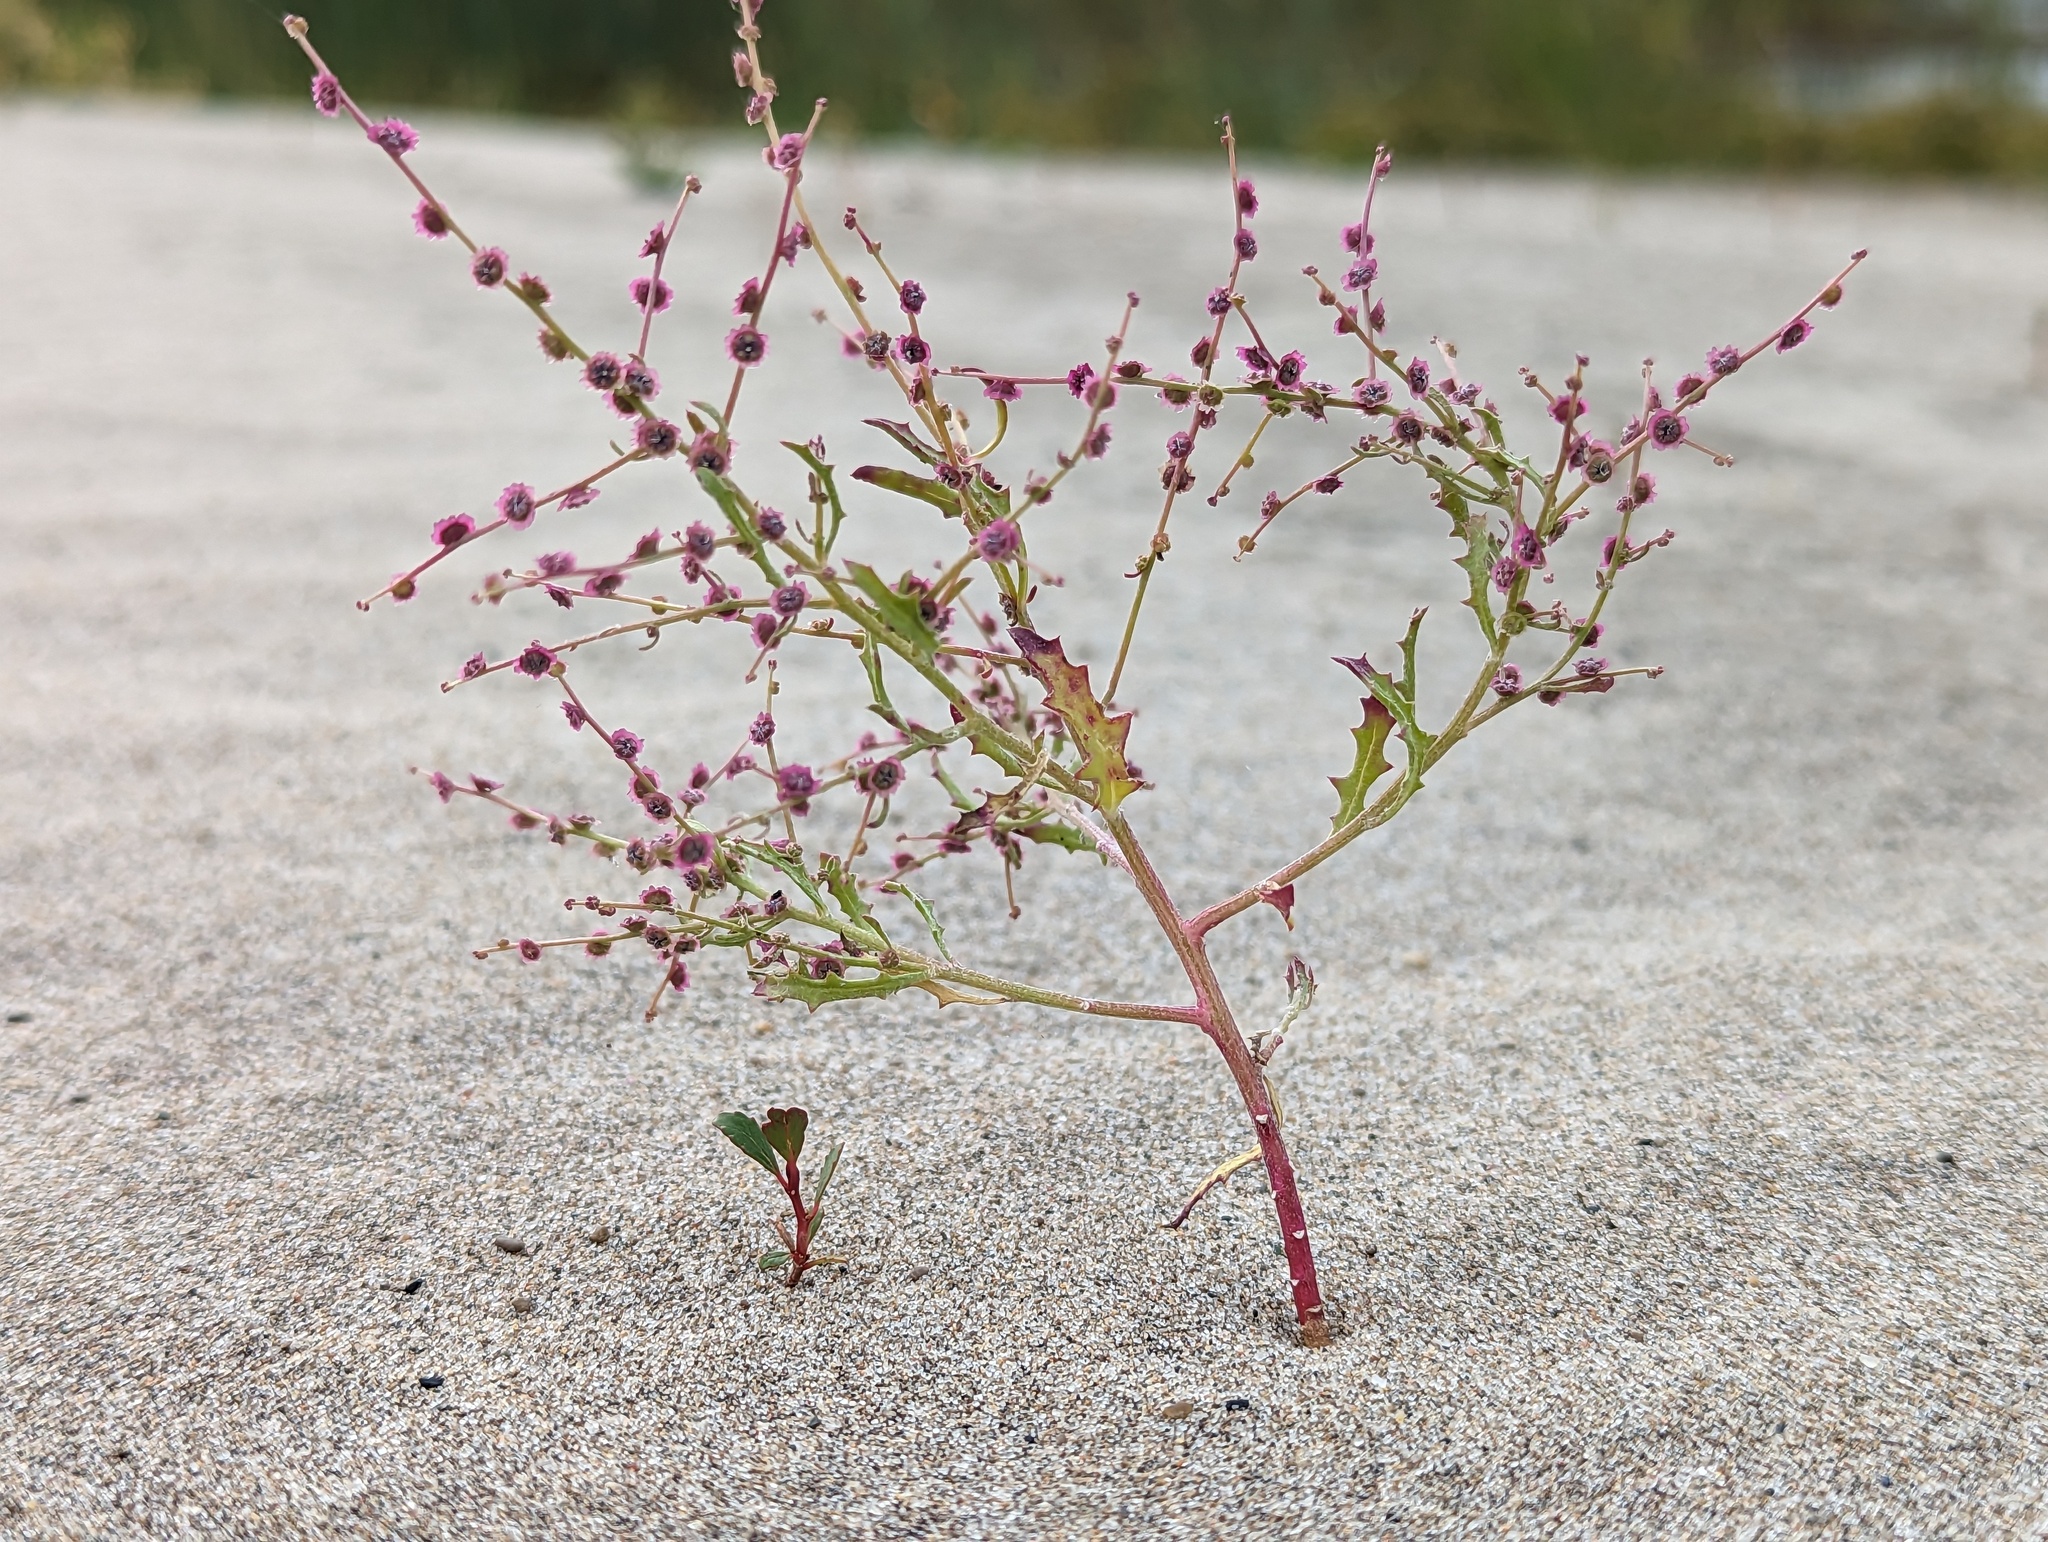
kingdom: Plantae
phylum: Tracheophyta
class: Magnoliopsida
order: Caryophyllales
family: Amaranthaceae
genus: Dysphania
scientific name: Dysphania atriplicifolia
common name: Plains tumbleweed
